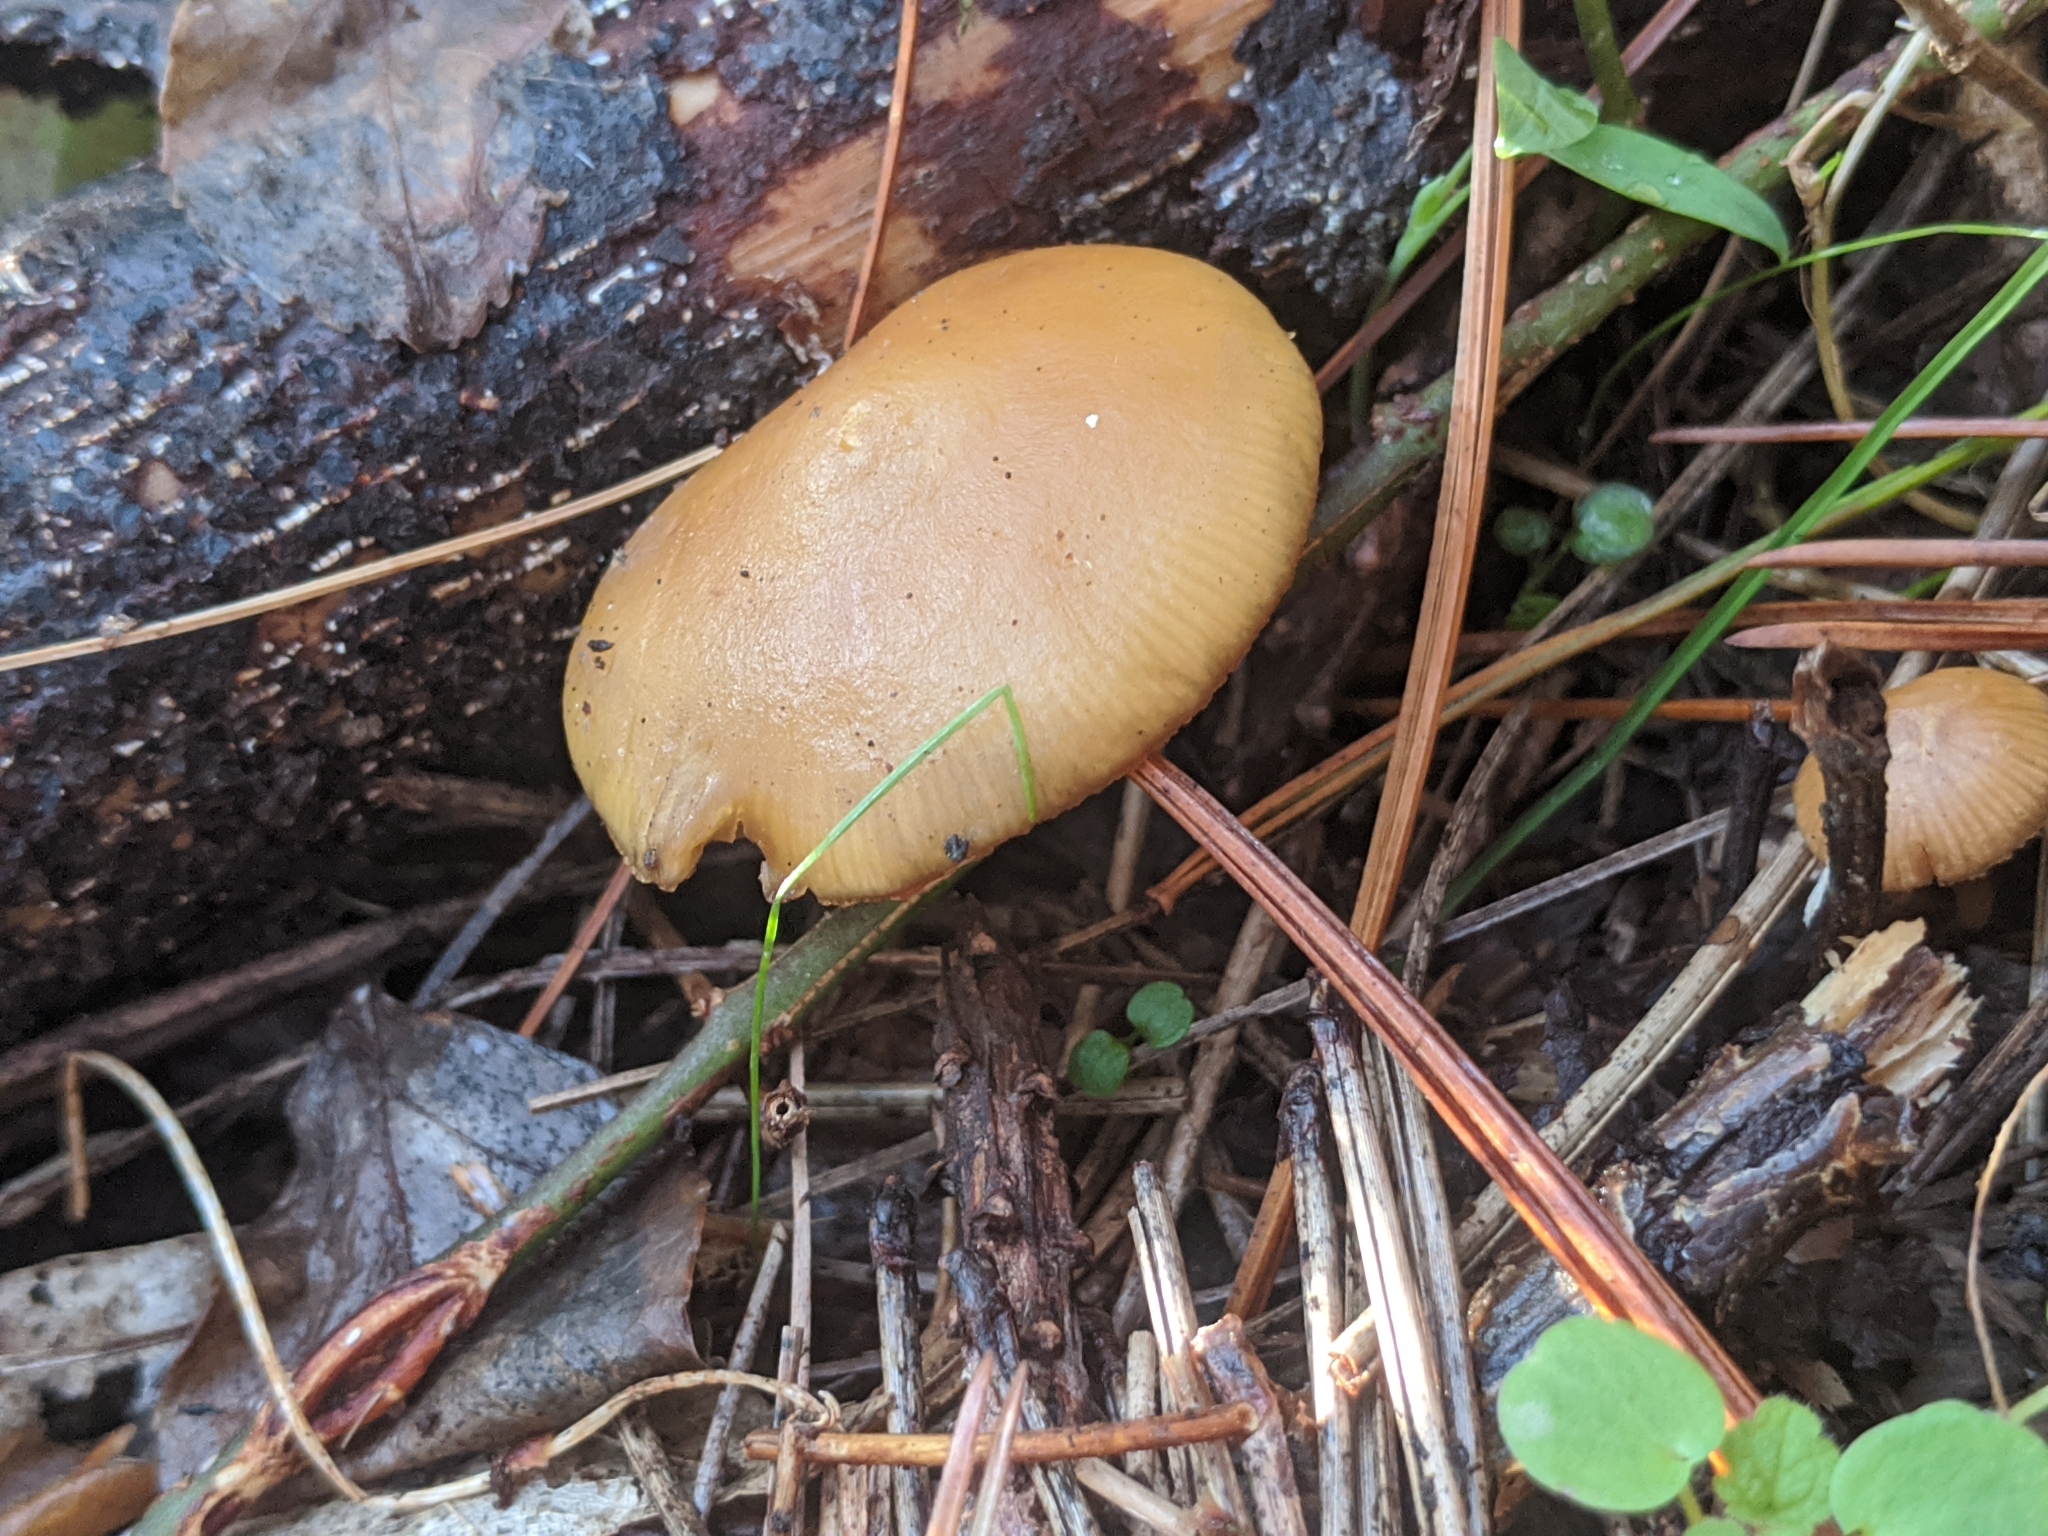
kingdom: Fungi
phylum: Basidiomycota
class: Agaricomycetes
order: Agaricales
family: Hymenogastraceae
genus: Galerina
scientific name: Galerina marginata
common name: Funeral bell
